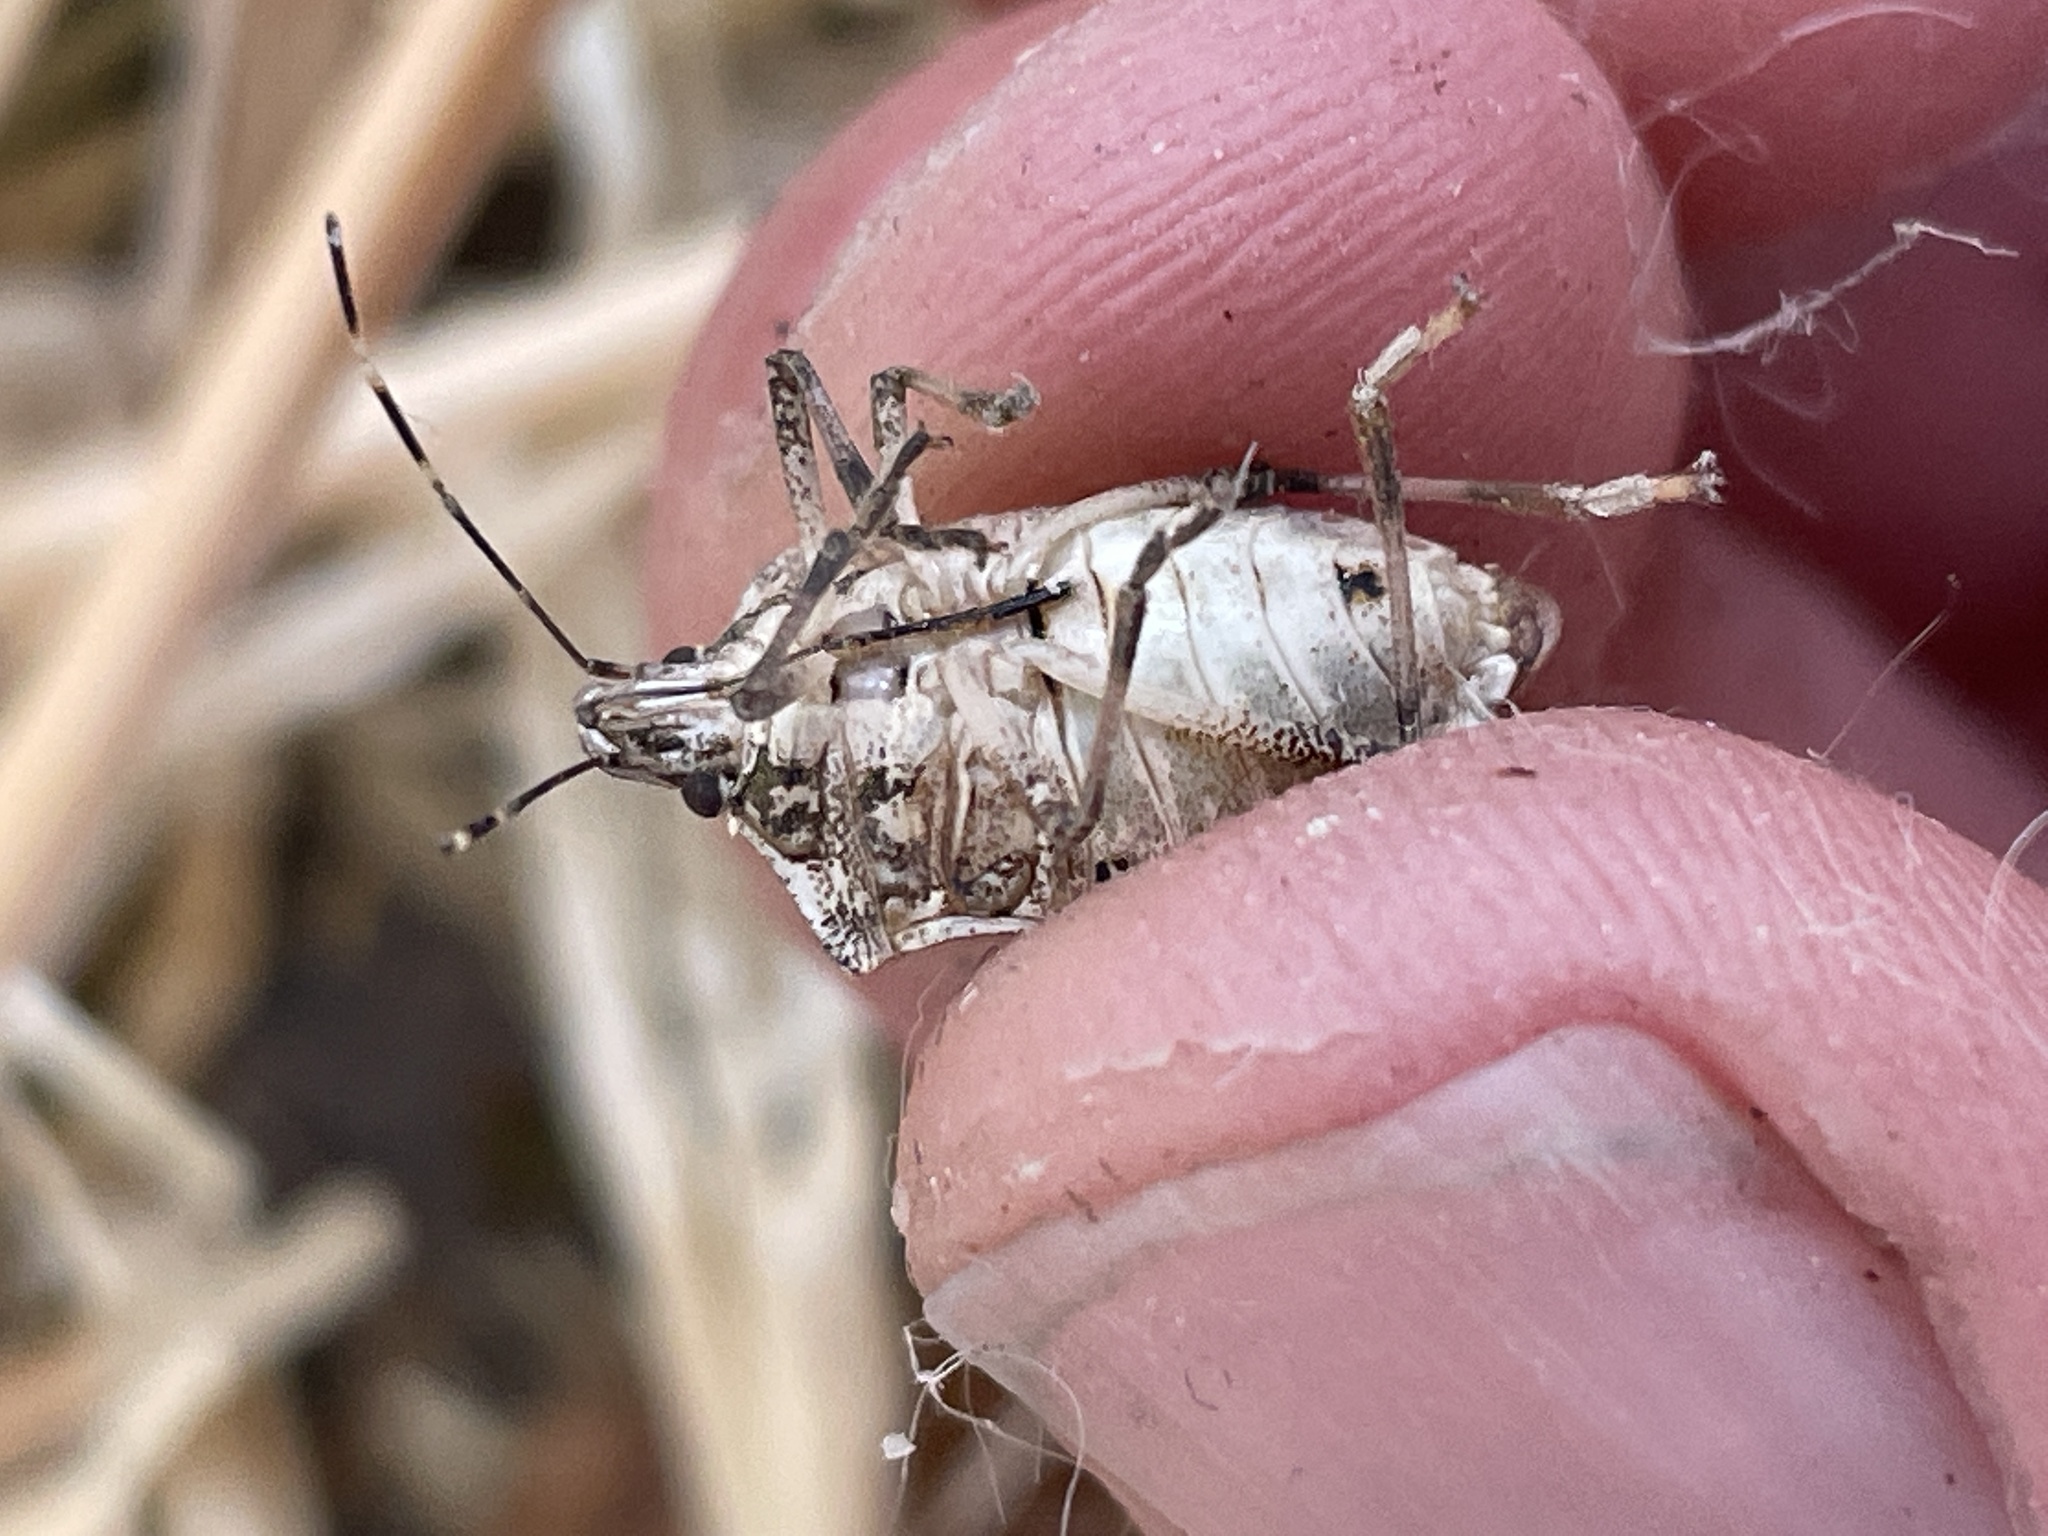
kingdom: Animalia
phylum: Arthropoda
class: Insecta
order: Hemiptera
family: Pentatomidae
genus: Halyomorpha
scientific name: Halyomorpha halys
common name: Brown marmorated stink bug
